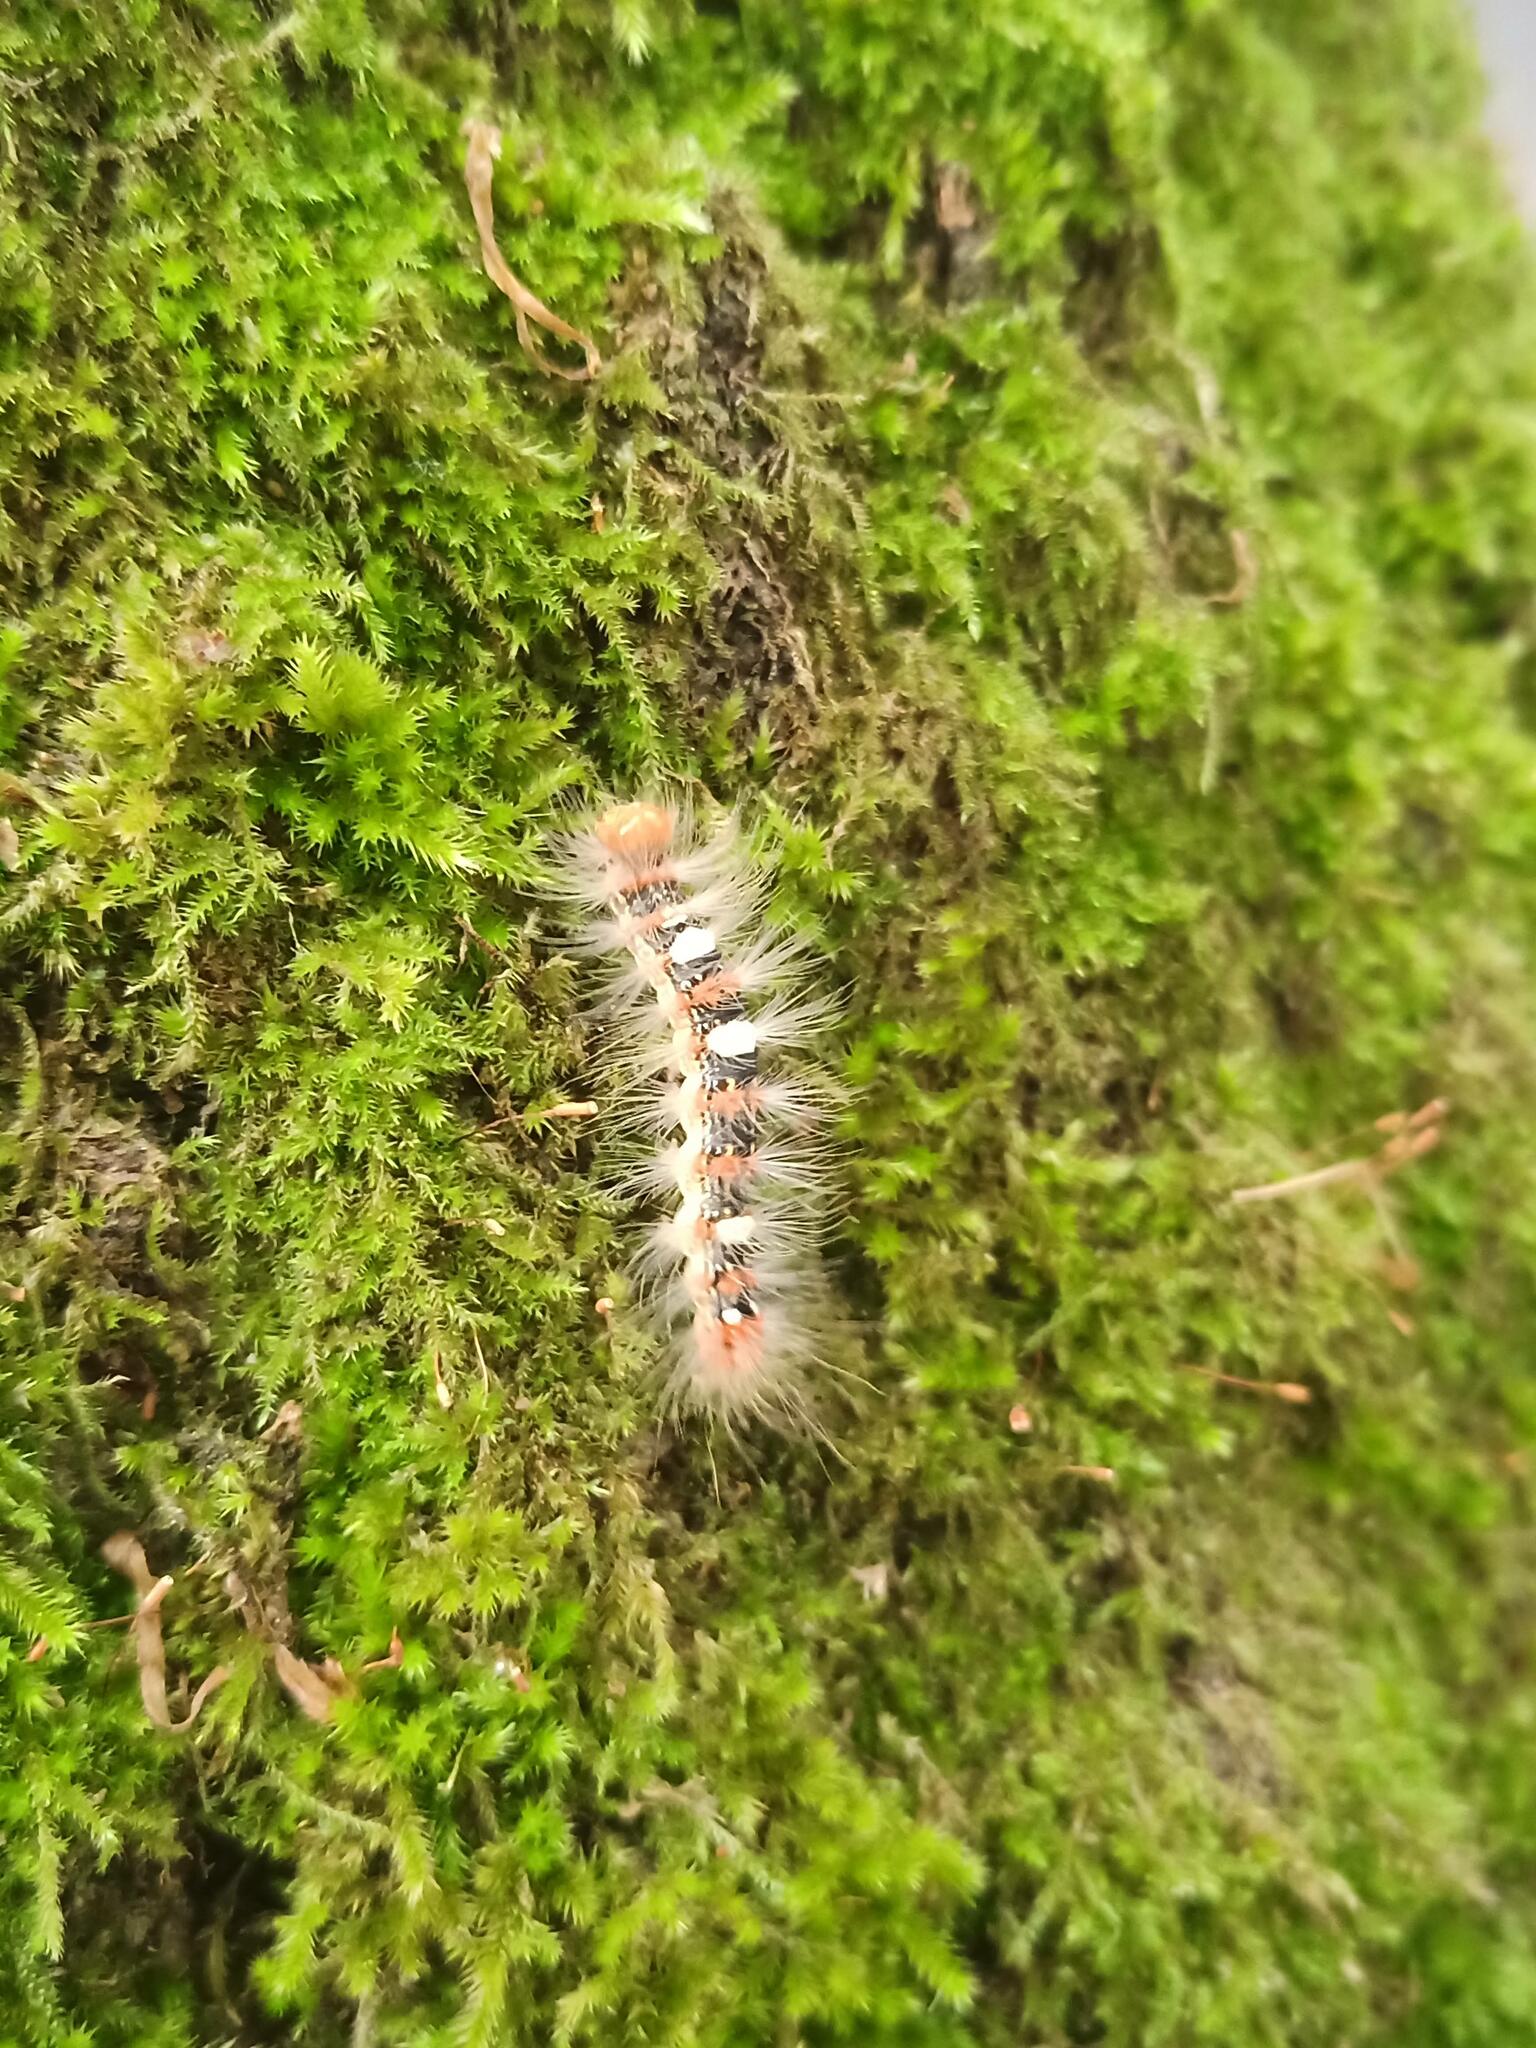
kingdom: Animalia
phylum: Arthropoda
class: Insecta
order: Lepidoptera
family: Noctuidae
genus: Moma
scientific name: Moma alpium
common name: Scarce merveille du jour
